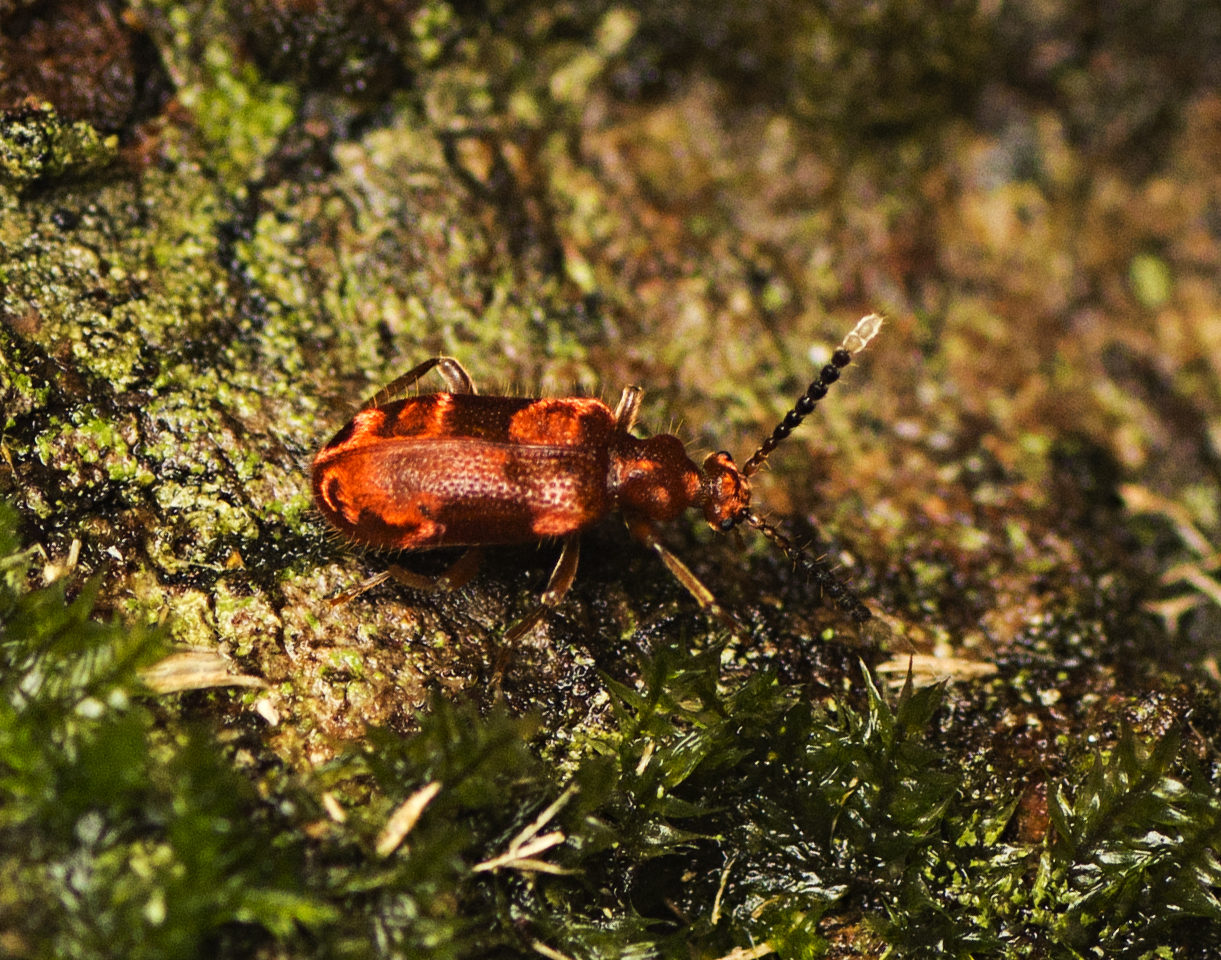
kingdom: Animalia
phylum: Arthropoda
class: Insecta
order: Coleoptera
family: Anthicidae
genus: Lemodes
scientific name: Lemodes
